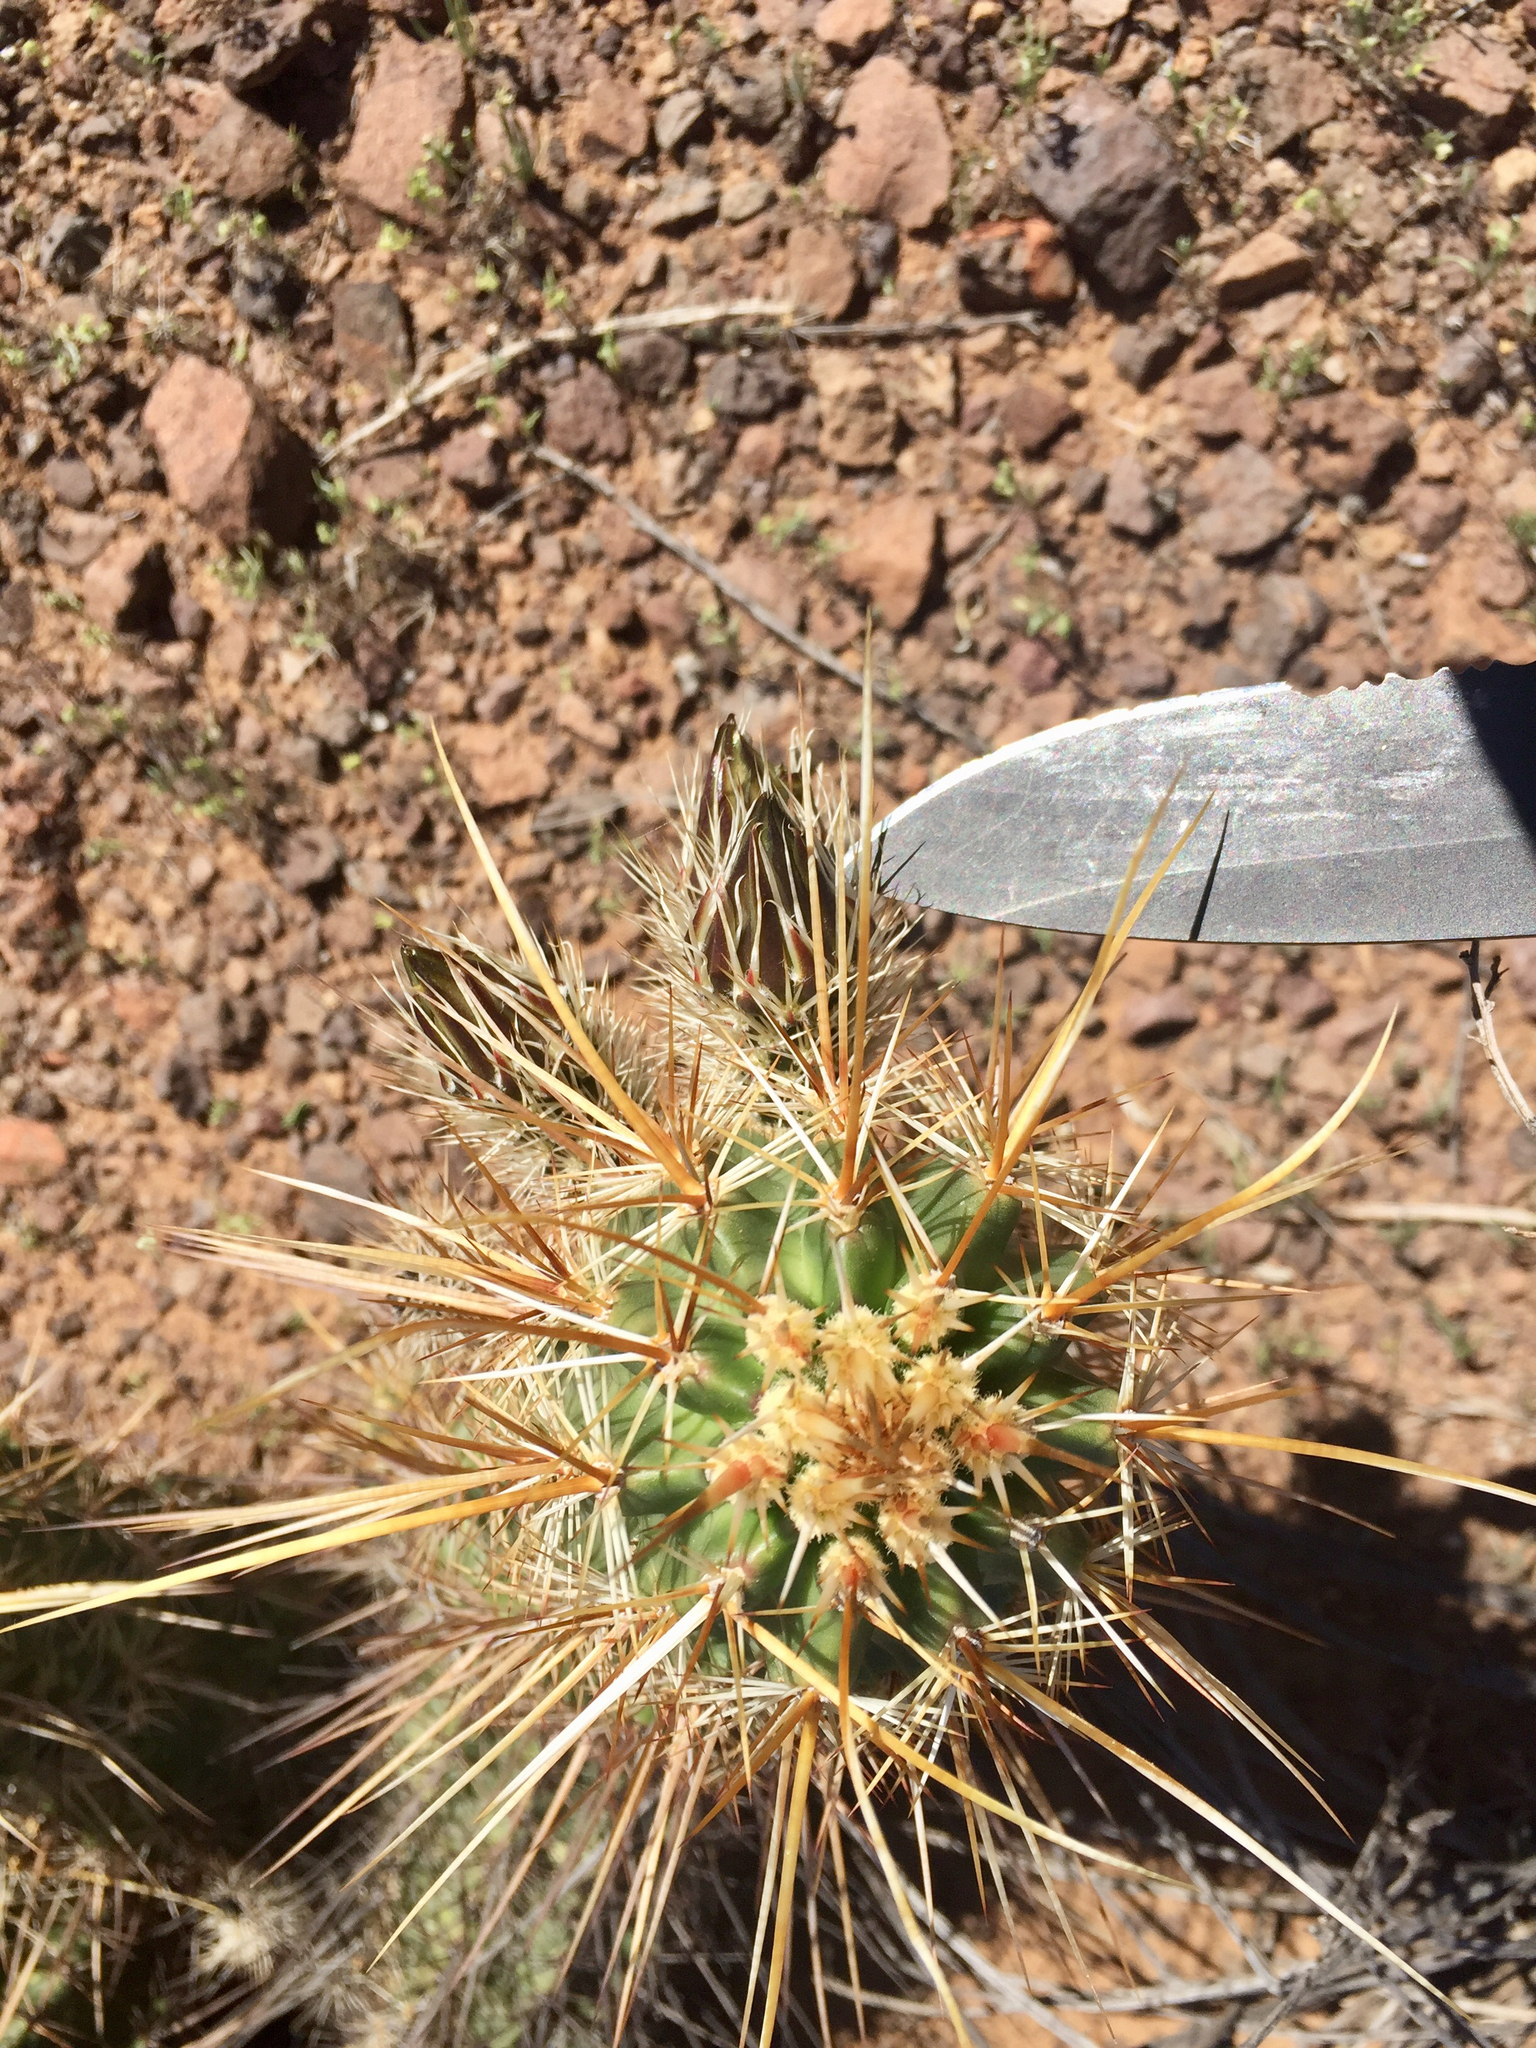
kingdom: Plantae
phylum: Tracheophyta
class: Magnoliopsida
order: Caryophyllales
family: Cactaceae
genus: Echinocereus
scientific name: Echinocereus fasciculatus
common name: Bundle hedgehog
